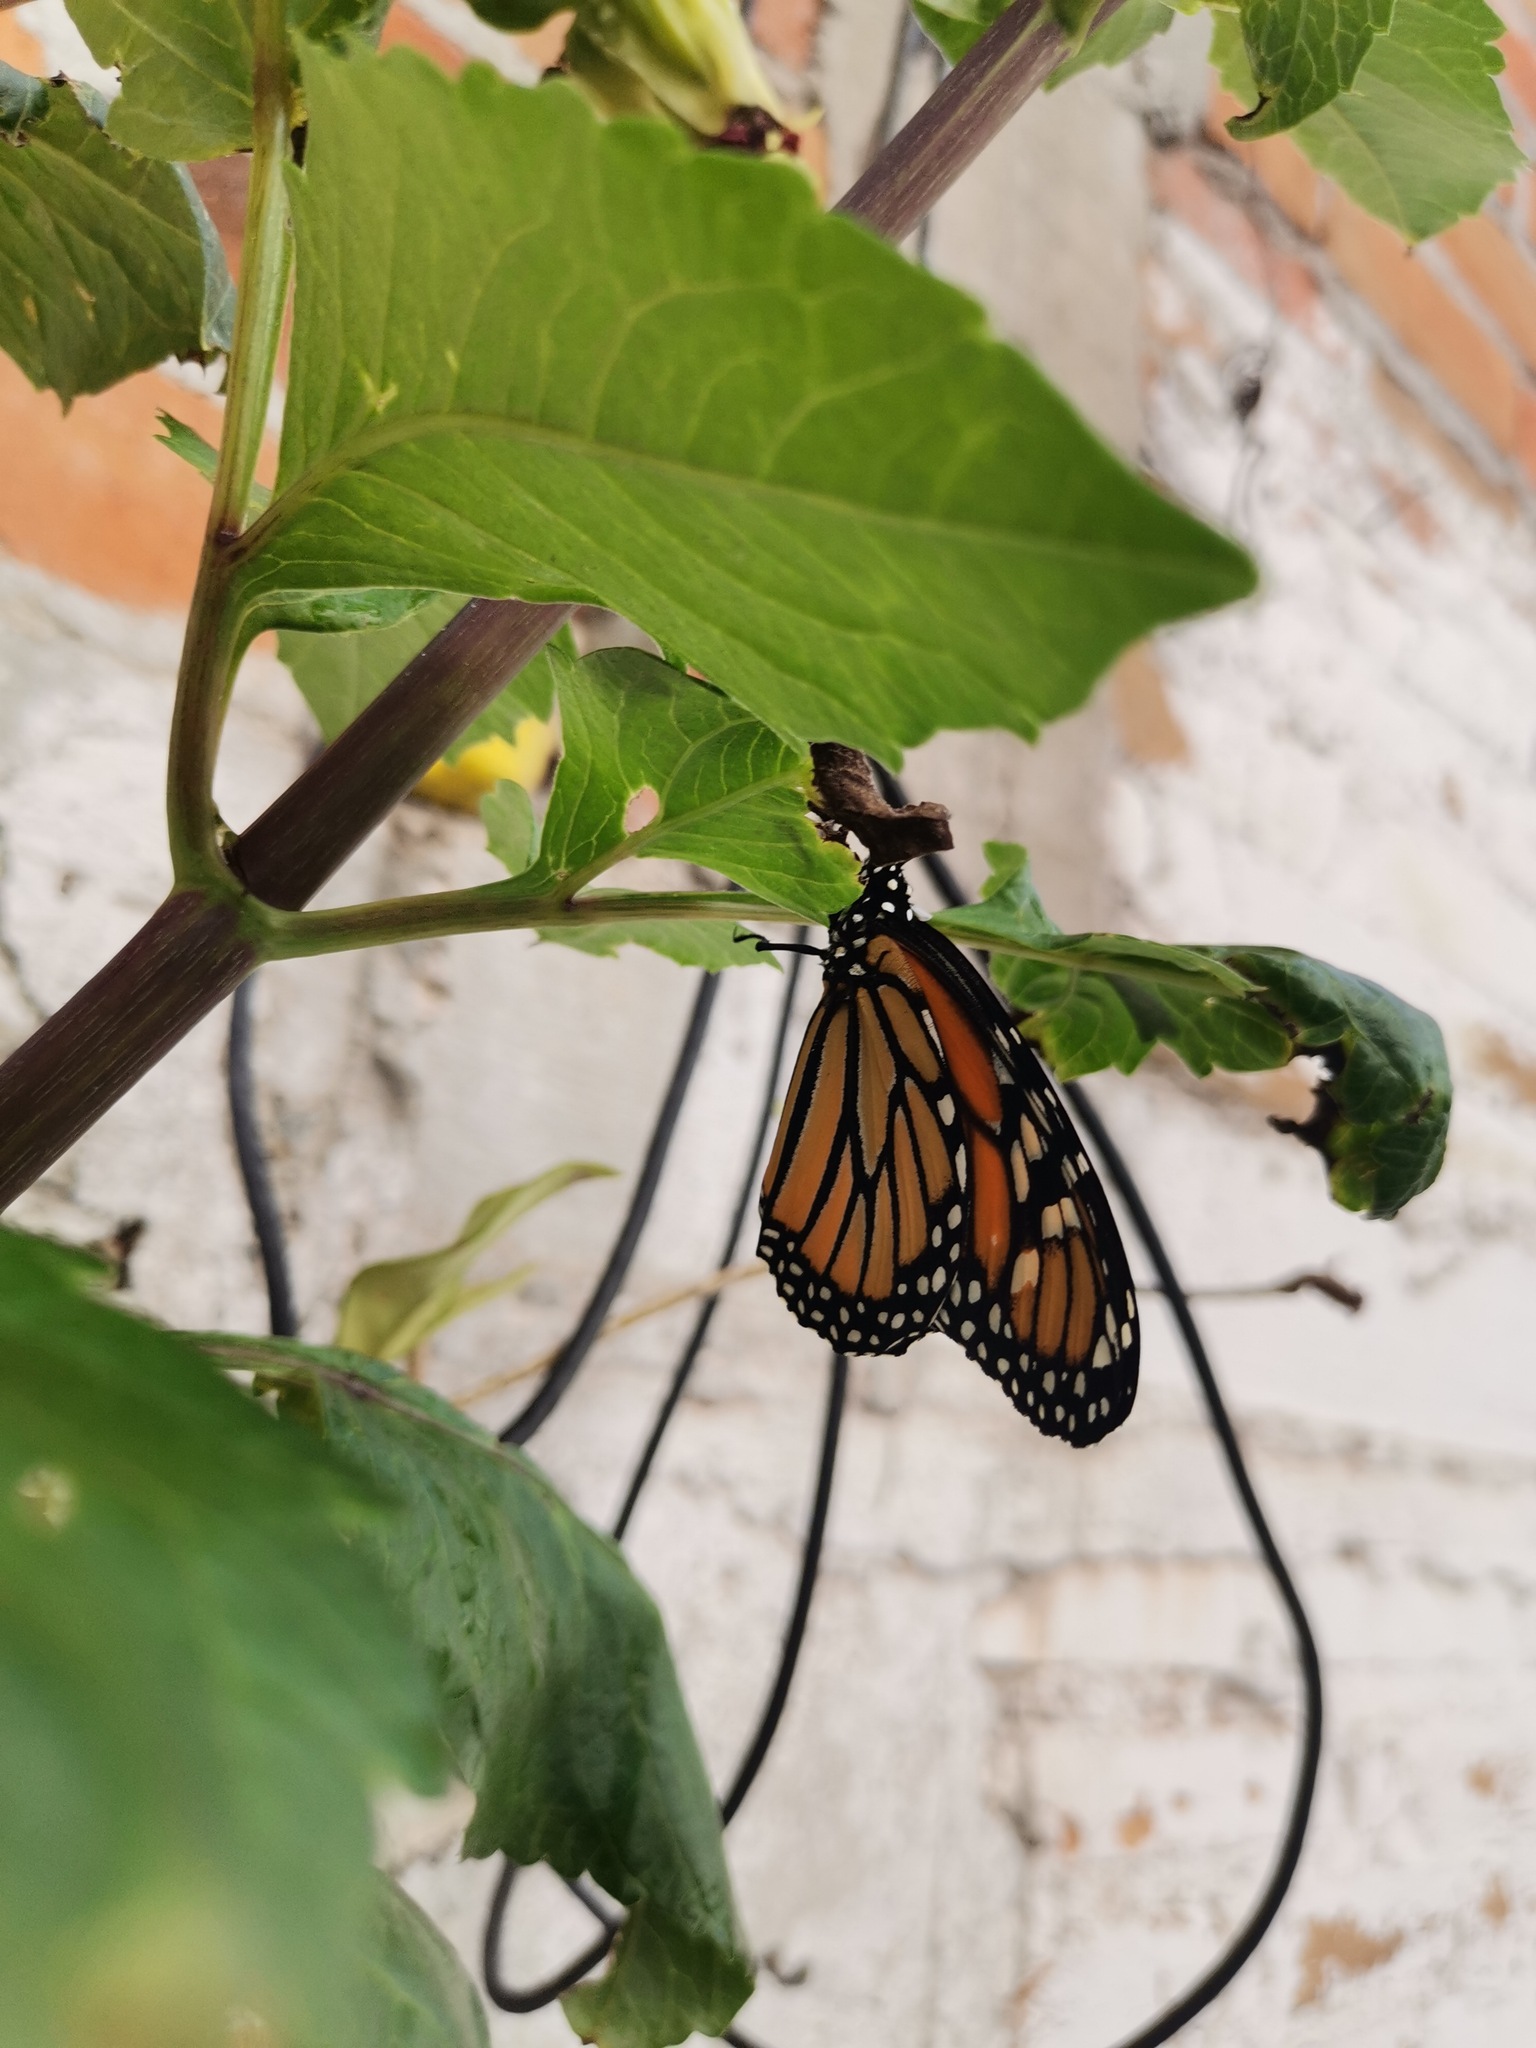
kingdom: Animalia
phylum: Arthropoda
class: Insecta
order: Lepidoptera
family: Nymphalidae
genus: Danaus
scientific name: Danaus plexippus
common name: Monarch
